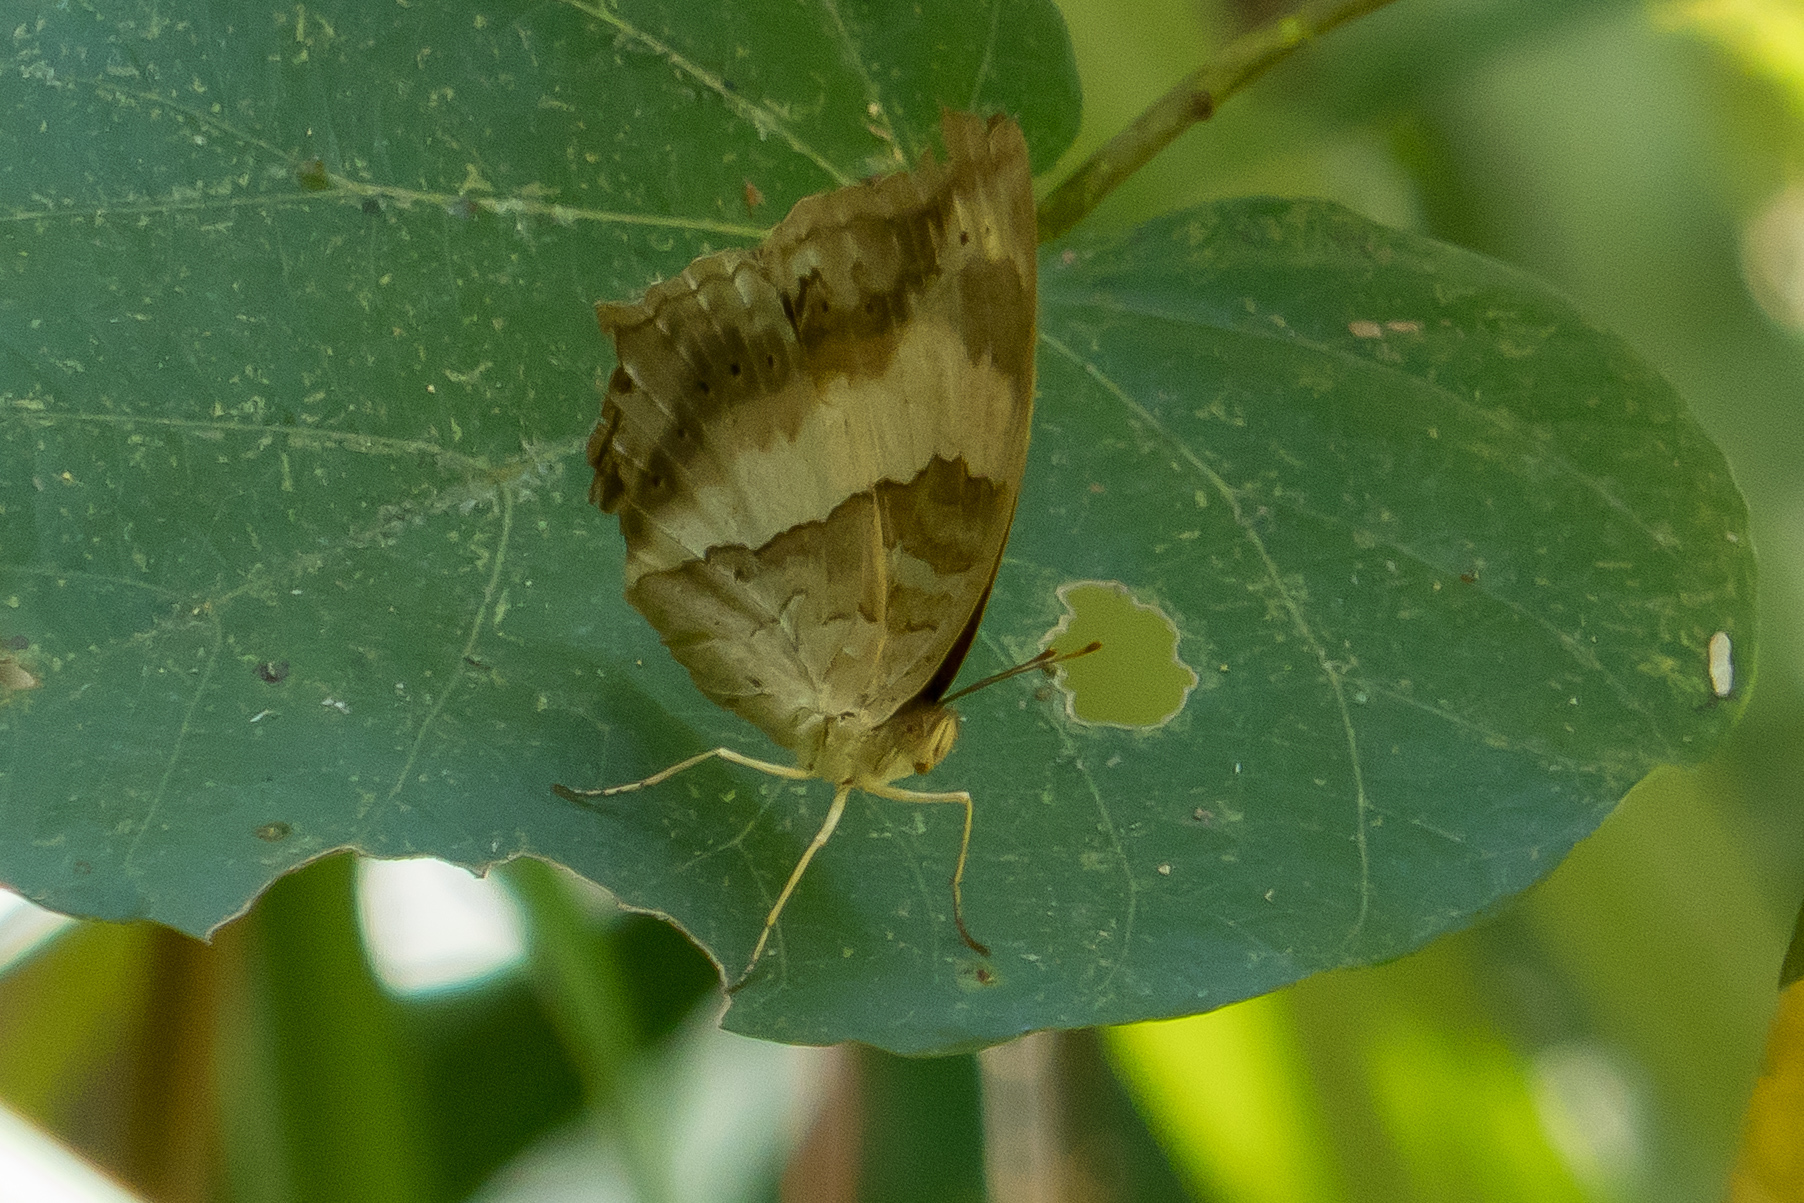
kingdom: Animalia
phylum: Arthropoda
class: Insecta
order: Lepidoptera
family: Nymphalidae
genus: Yoma
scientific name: Yoma sabina
